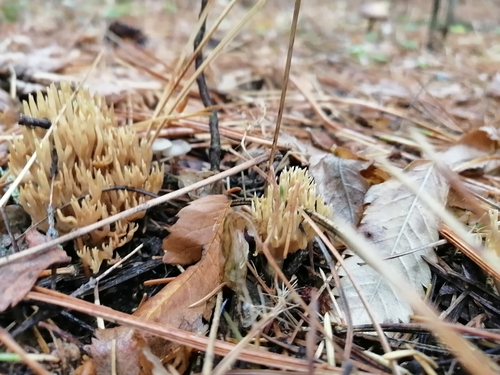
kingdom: Fungi
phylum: Basidiomycota
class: Agaricomycetes
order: Gomphales
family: Gomphaceae
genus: Ramaria
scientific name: Ramaria
